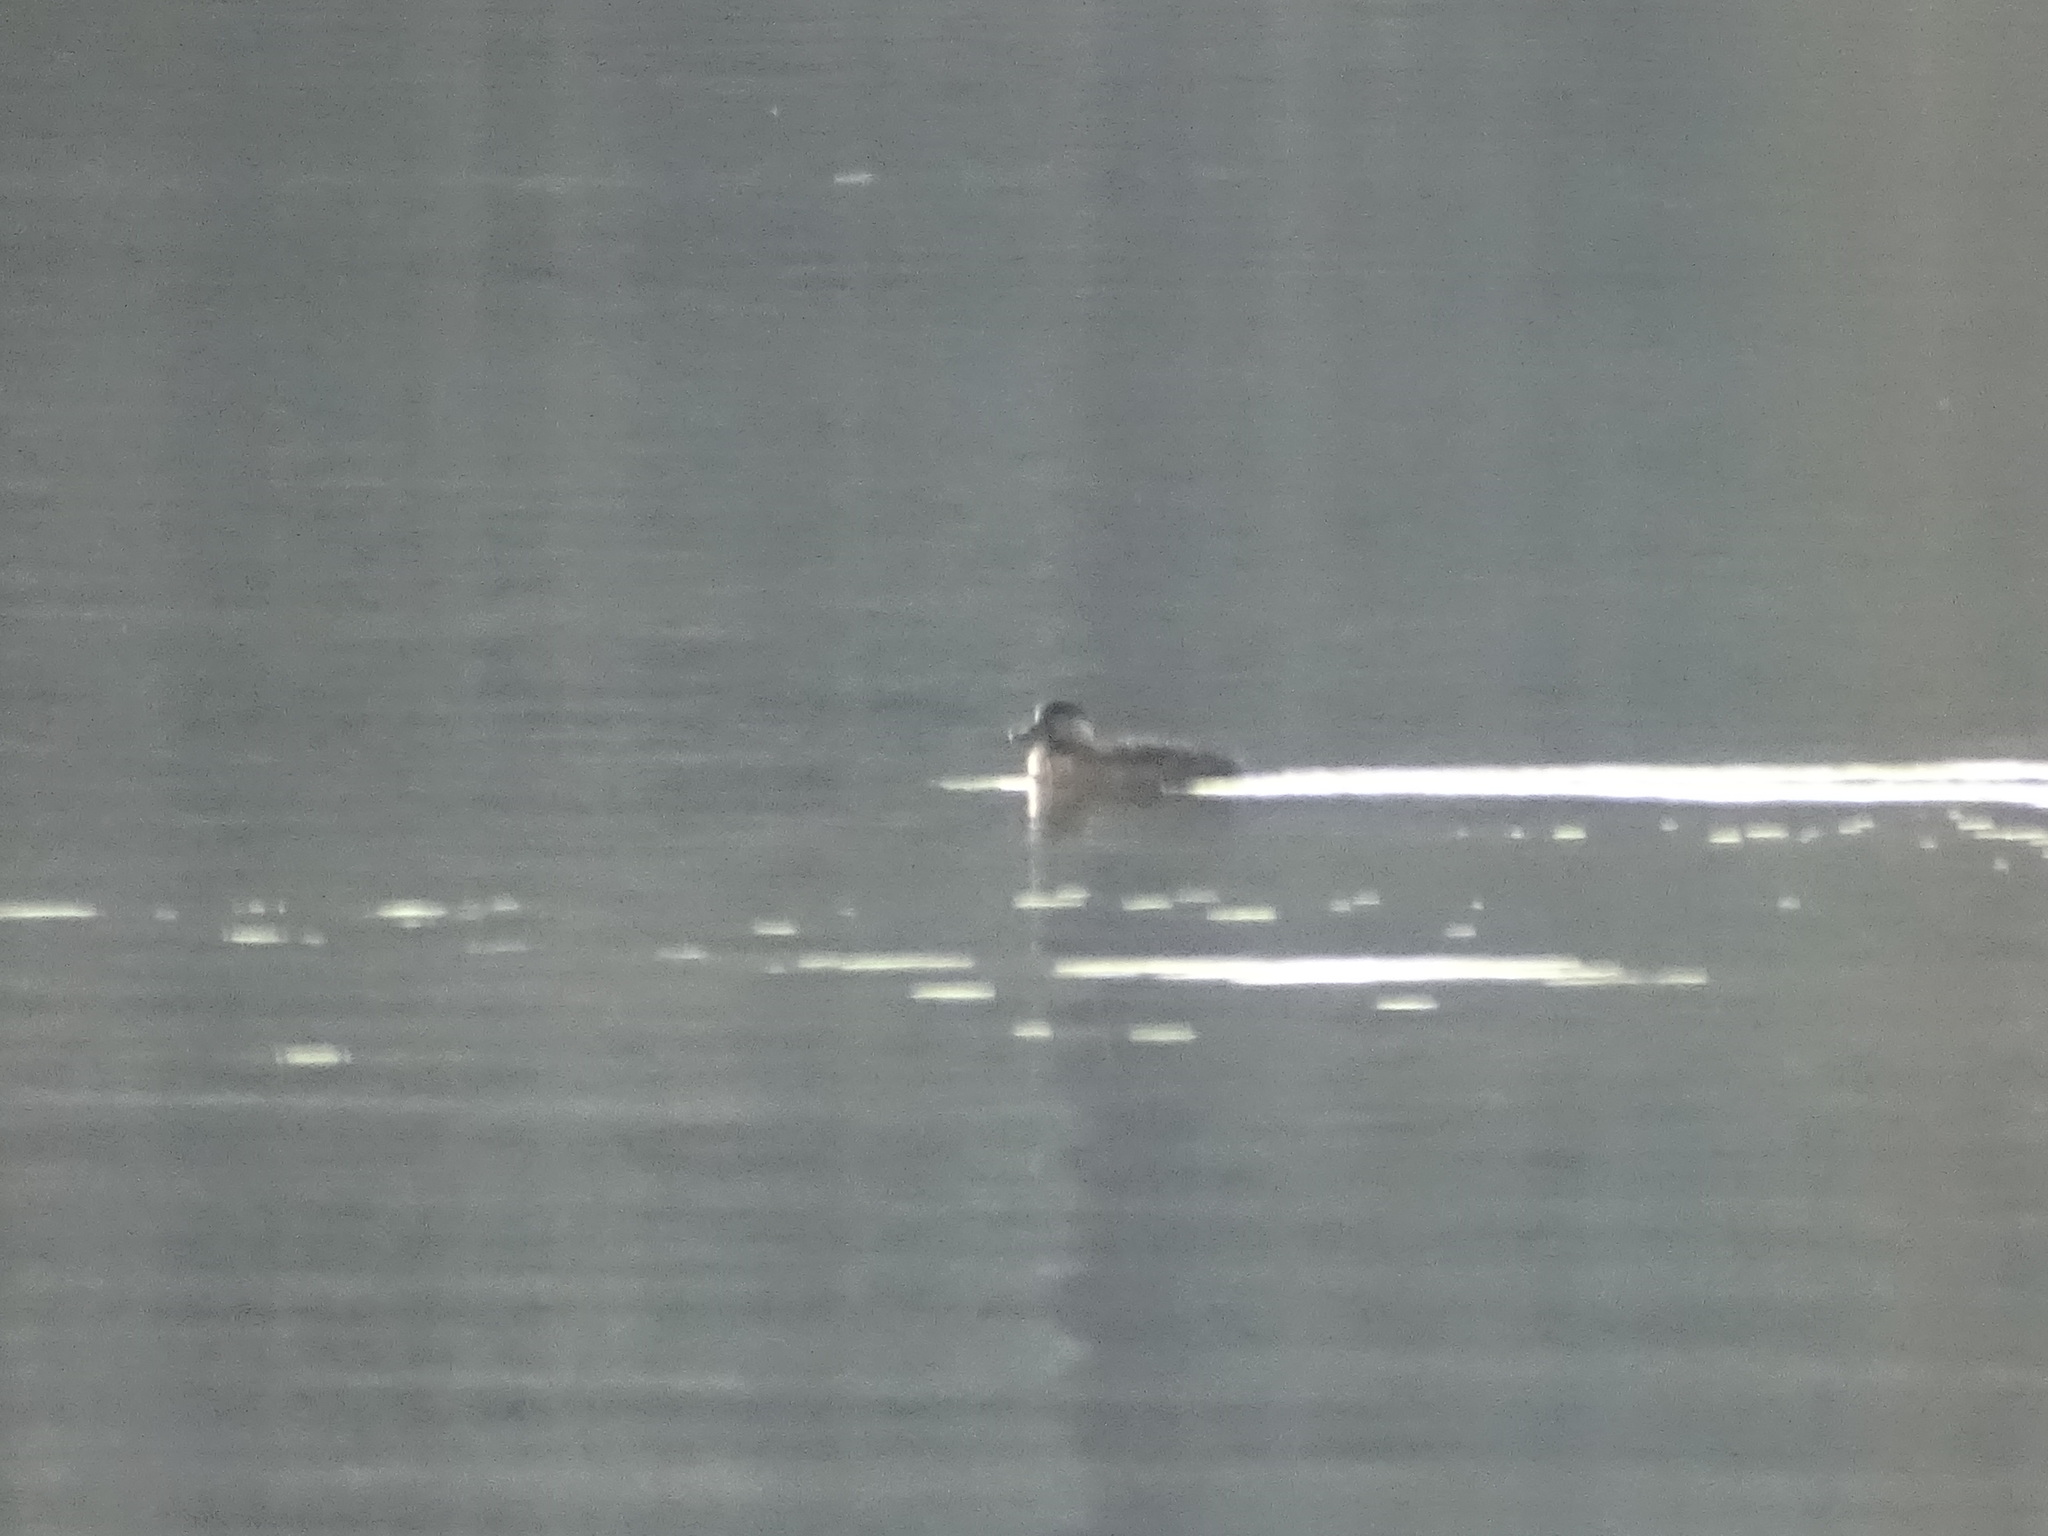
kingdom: Animalia
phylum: Chordata
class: Aves
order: Anseriformes
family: Anatidae
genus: Oxyura
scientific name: Oxyura jamaicensis
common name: Ruddy duck
